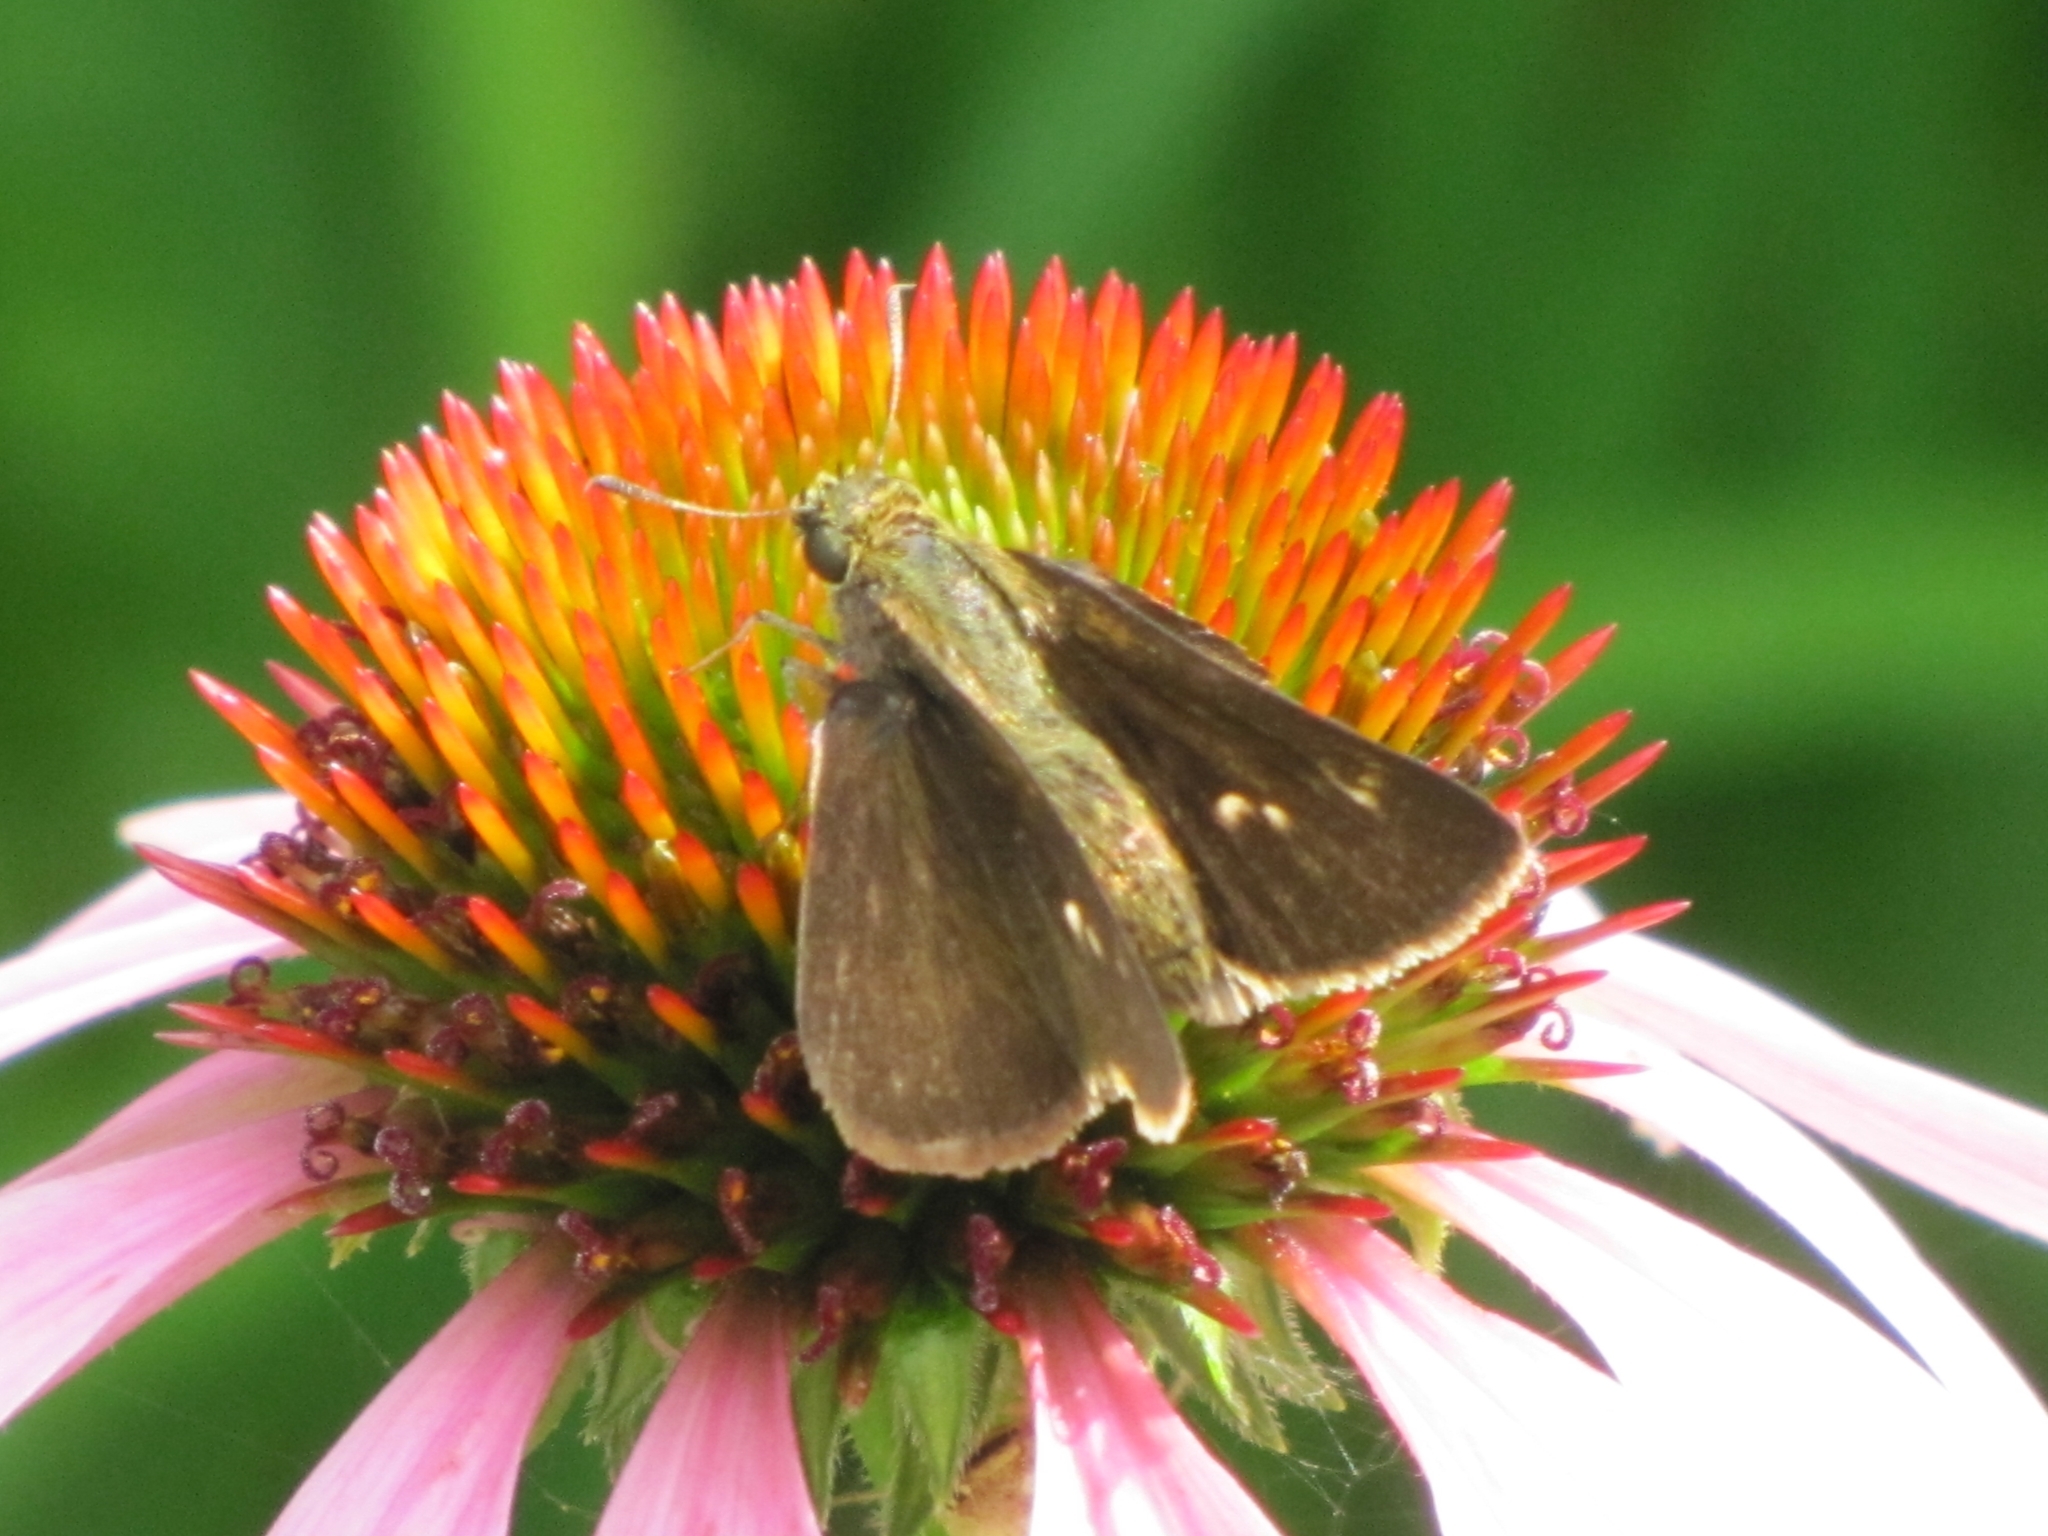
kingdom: Animalia
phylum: Arthropoda
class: Insecta
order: Lepidoptera
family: Hesperiidae
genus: Euphyes
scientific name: Euphyes vestris
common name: Dun skipper
